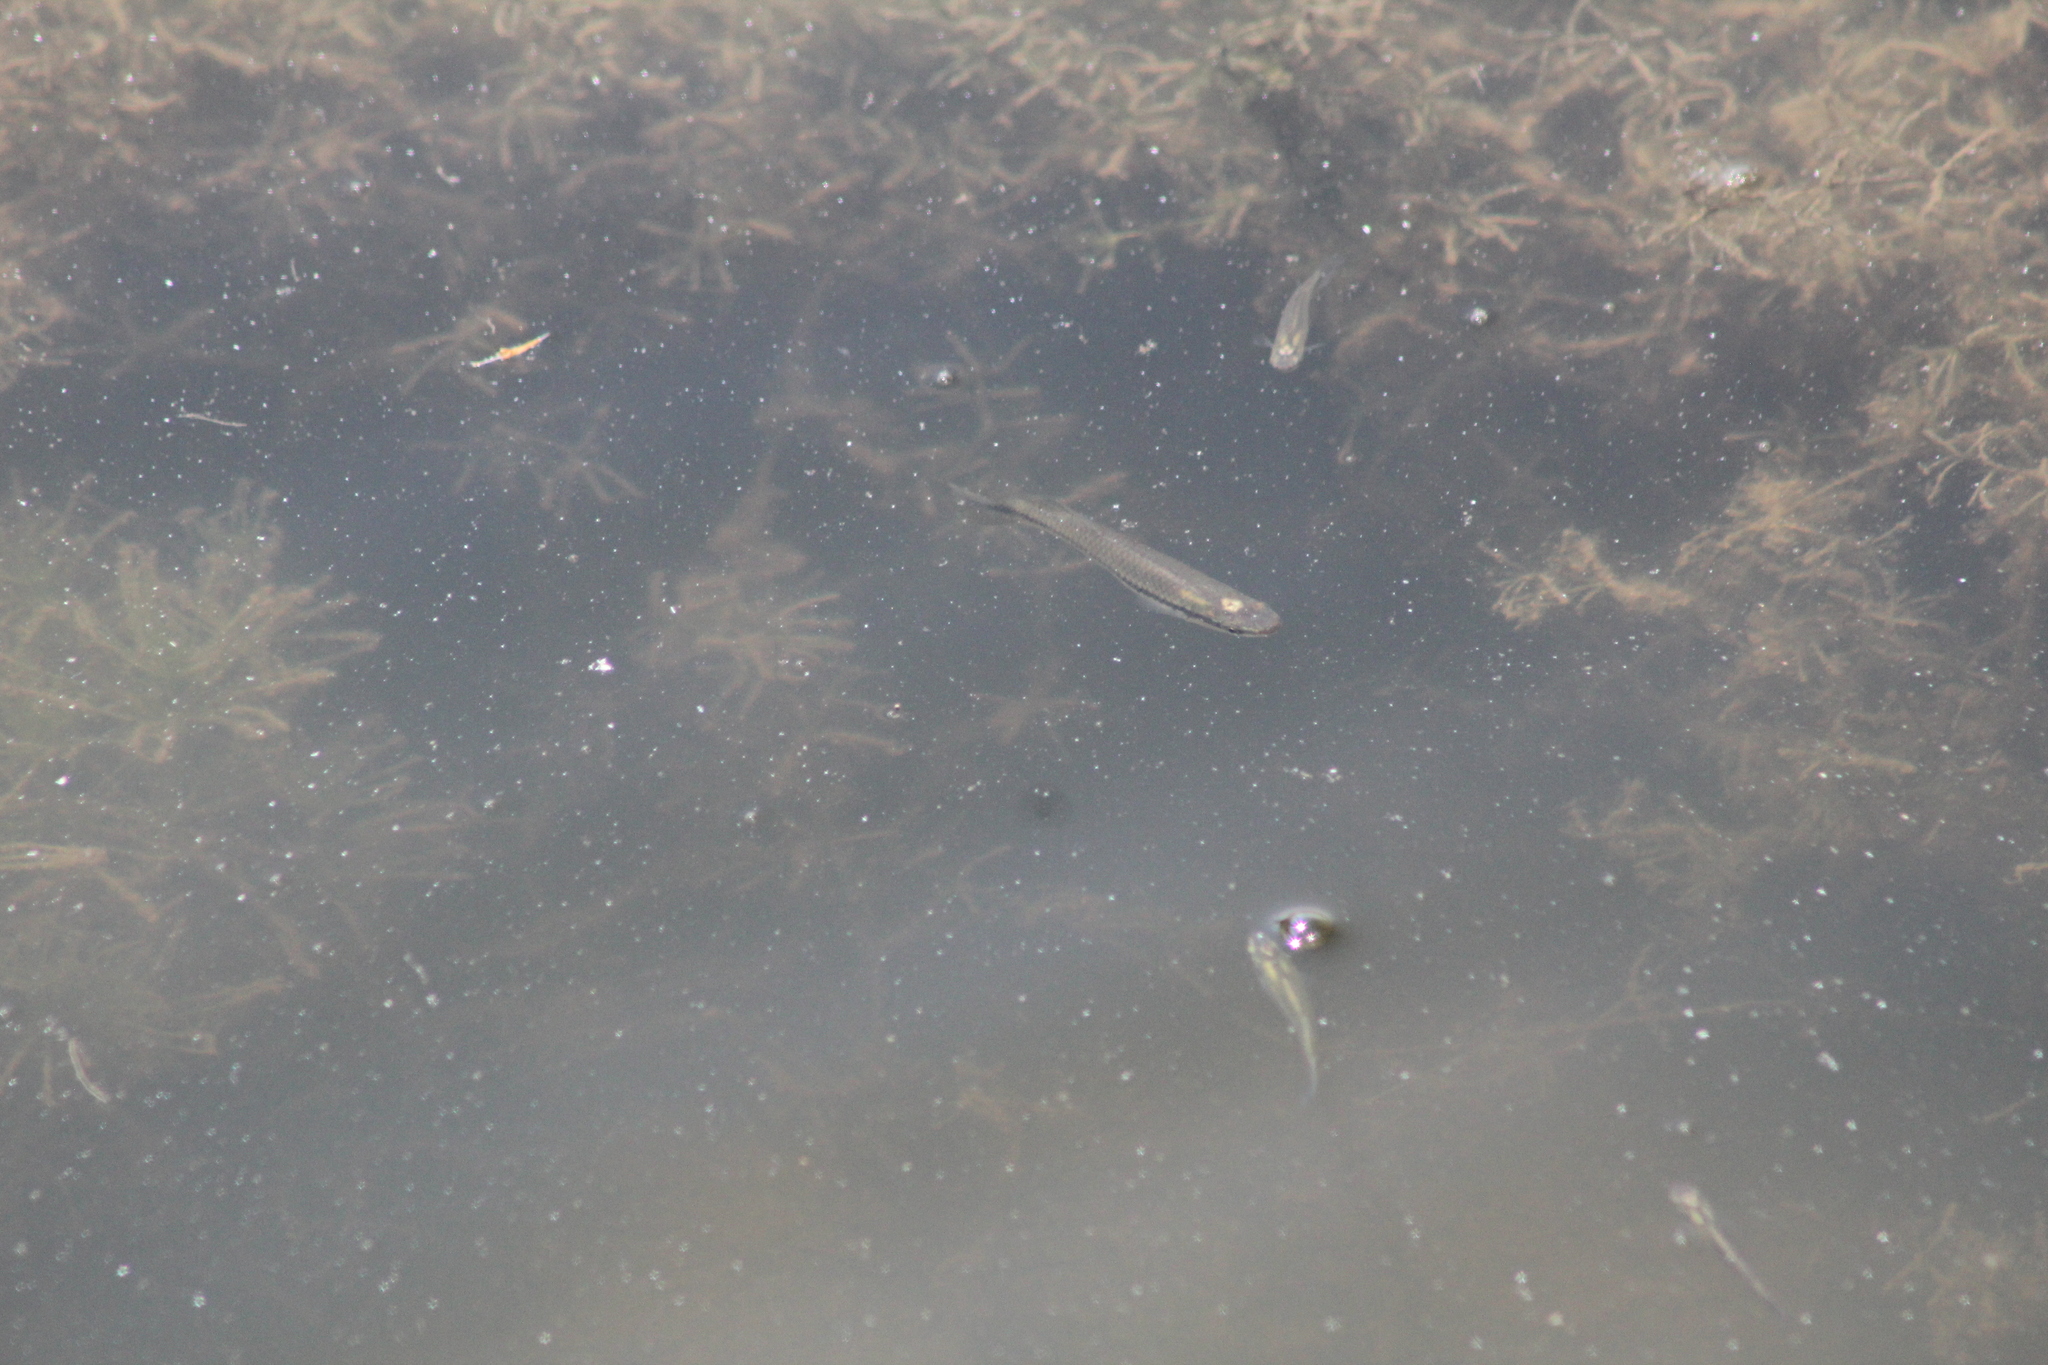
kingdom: Animalia
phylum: Chordata
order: Cyprinodontiformes
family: Poeciliidae
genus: Gambusia
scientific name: Gambusia affinis
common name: Mosquitofish
